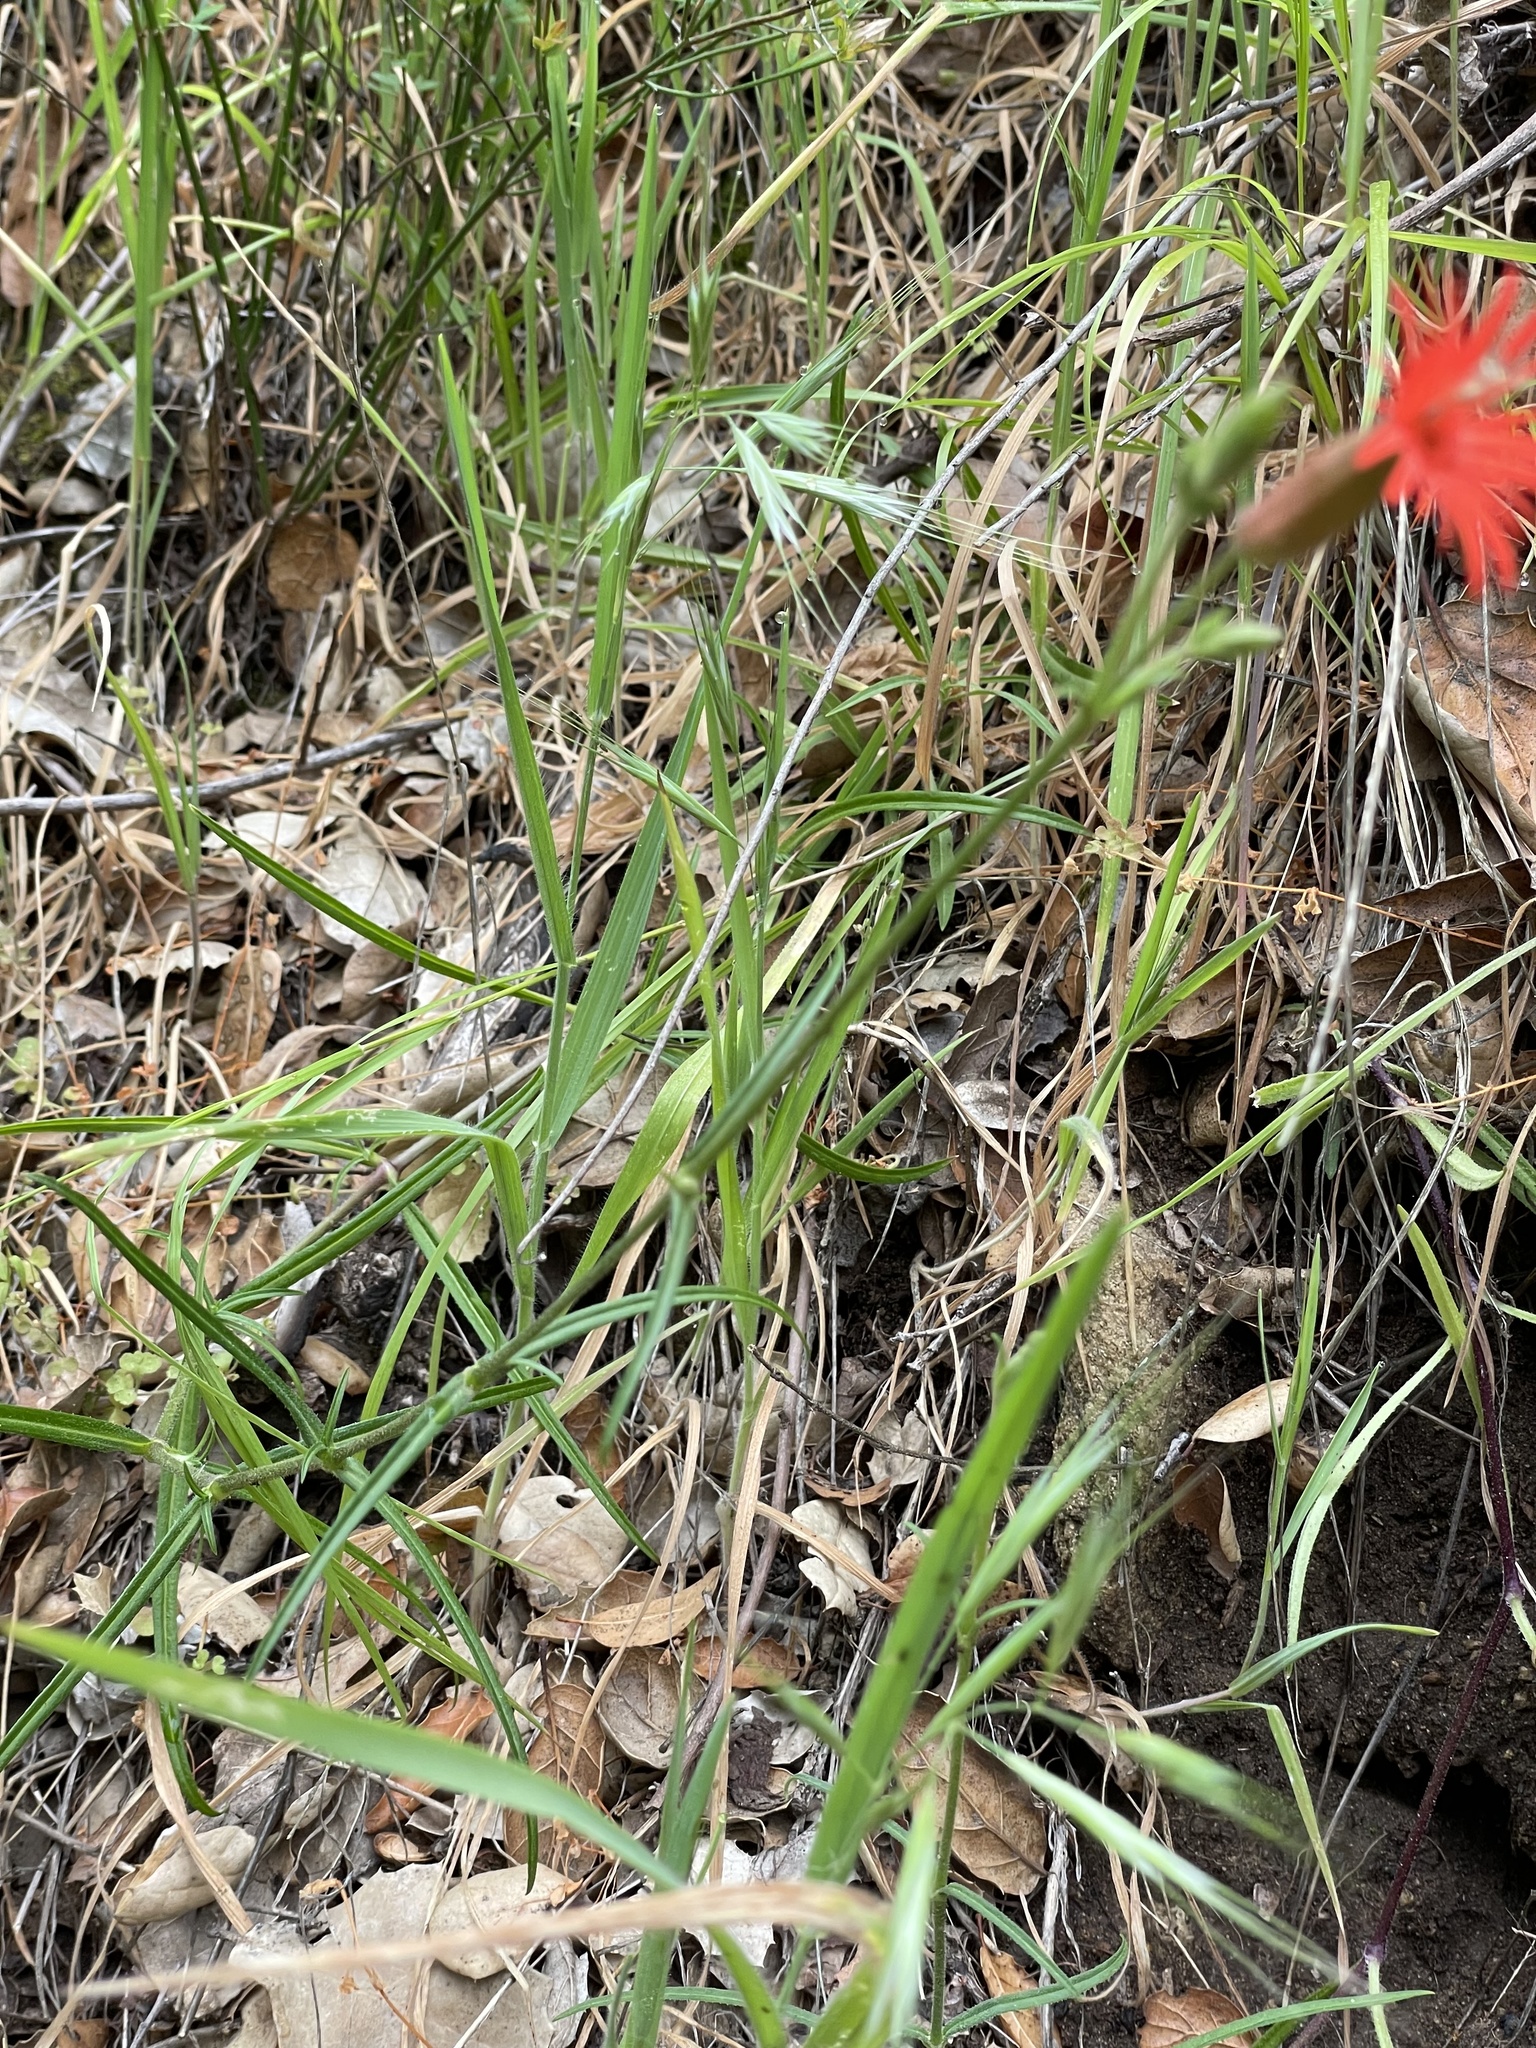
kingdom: Plantae
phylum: Tracheophyta
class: Magnoliopsida
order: Caryophyllales
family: Caryophyllaceae
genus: Silene
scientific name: Silene laciniata
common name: Indian-pink
